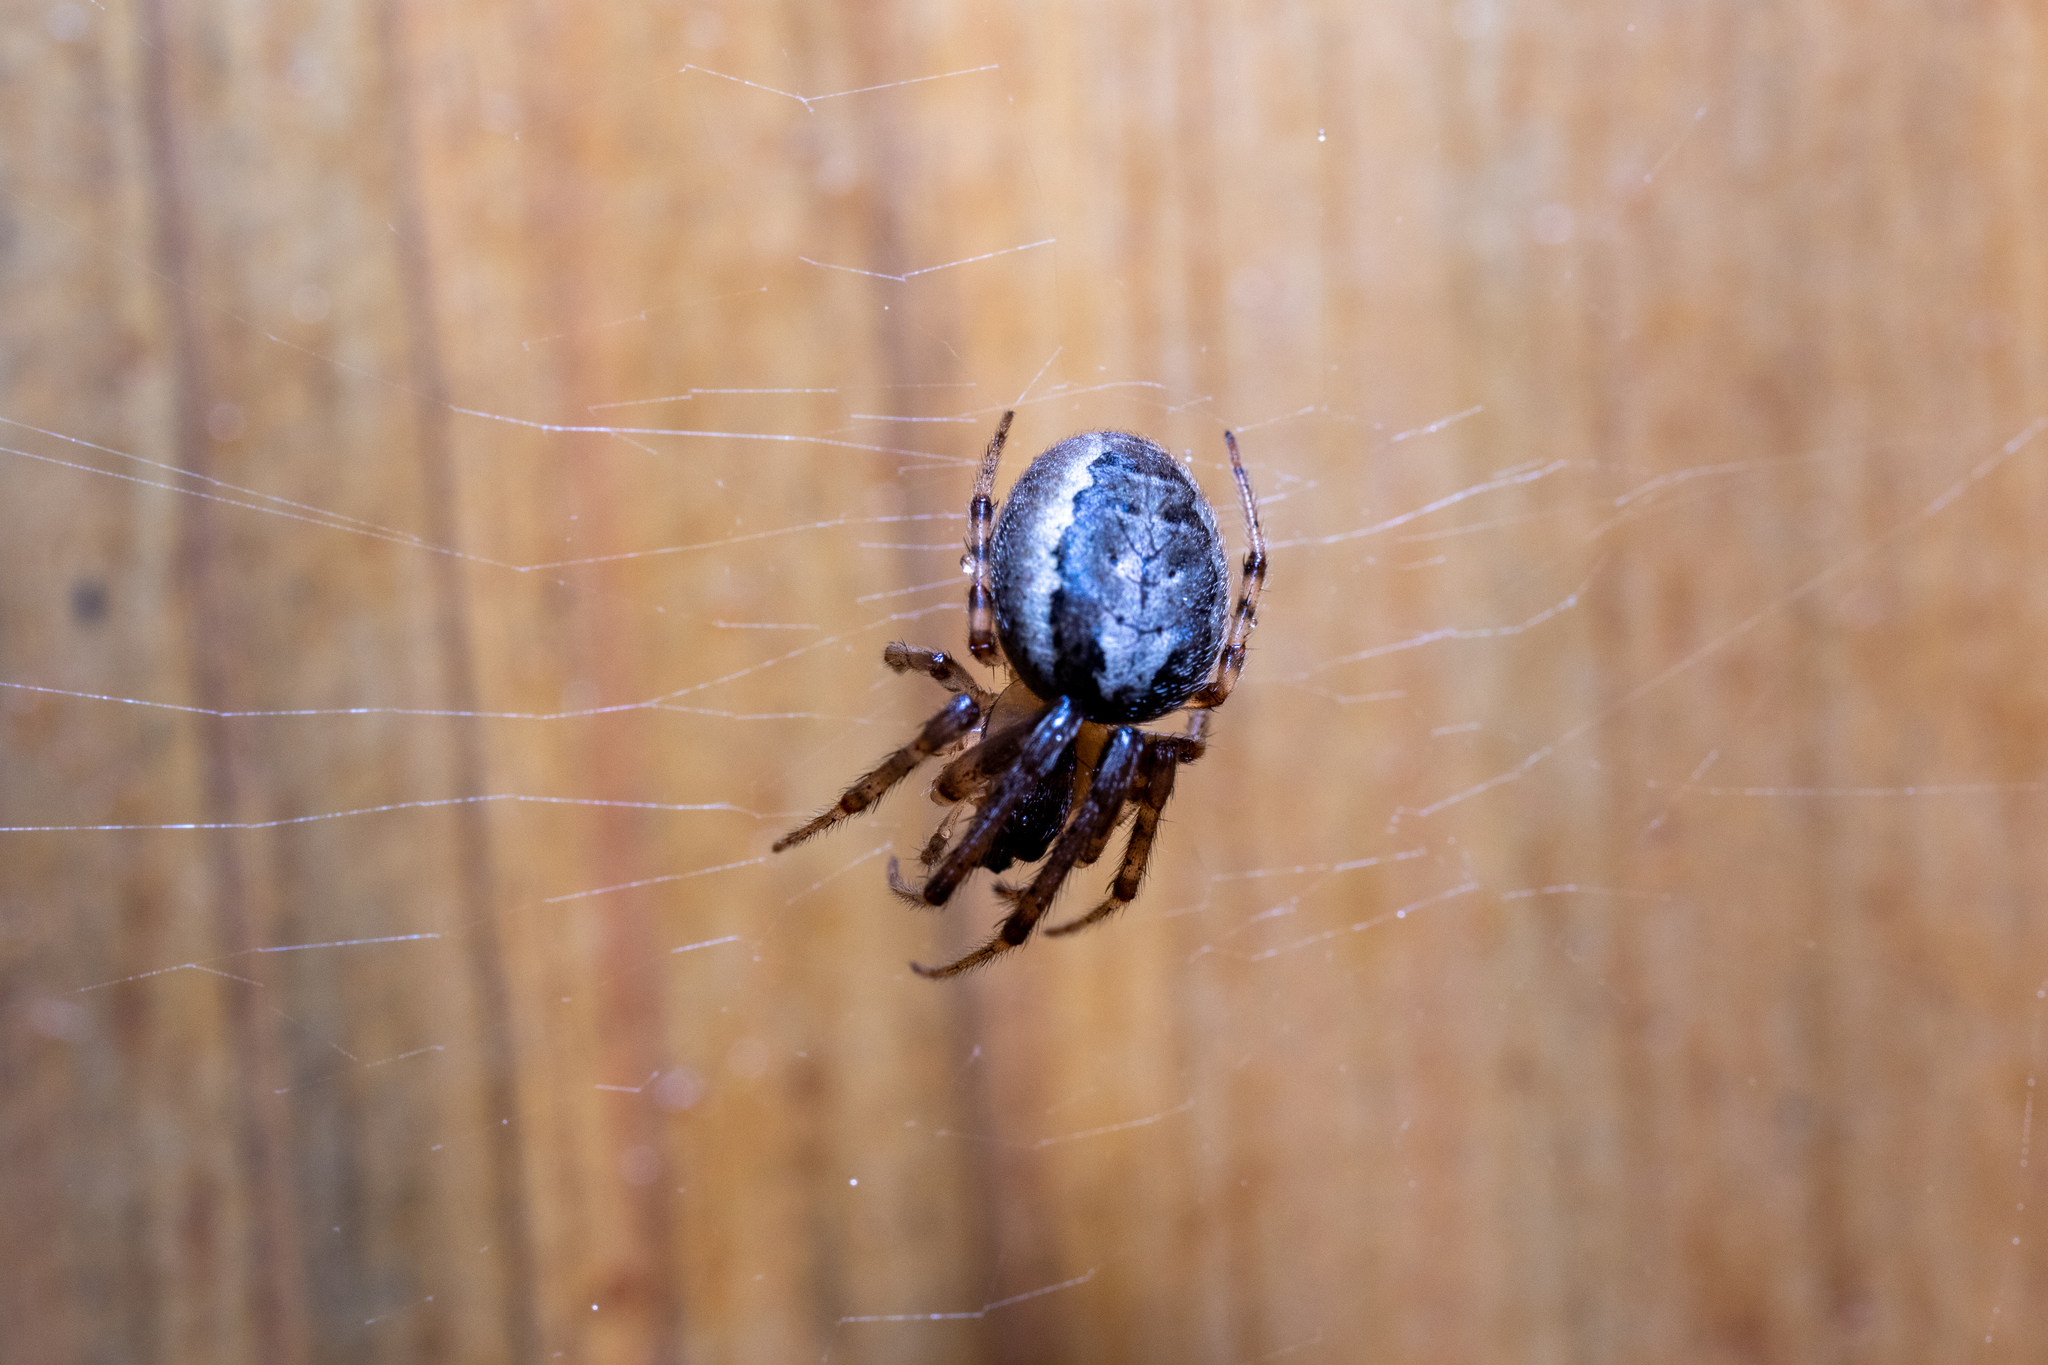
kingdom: Animalia
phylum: Arthropoda
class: Arachnida
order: Araneae
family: Araneidae
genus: Zygiella
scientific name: Zygiella x-notata
